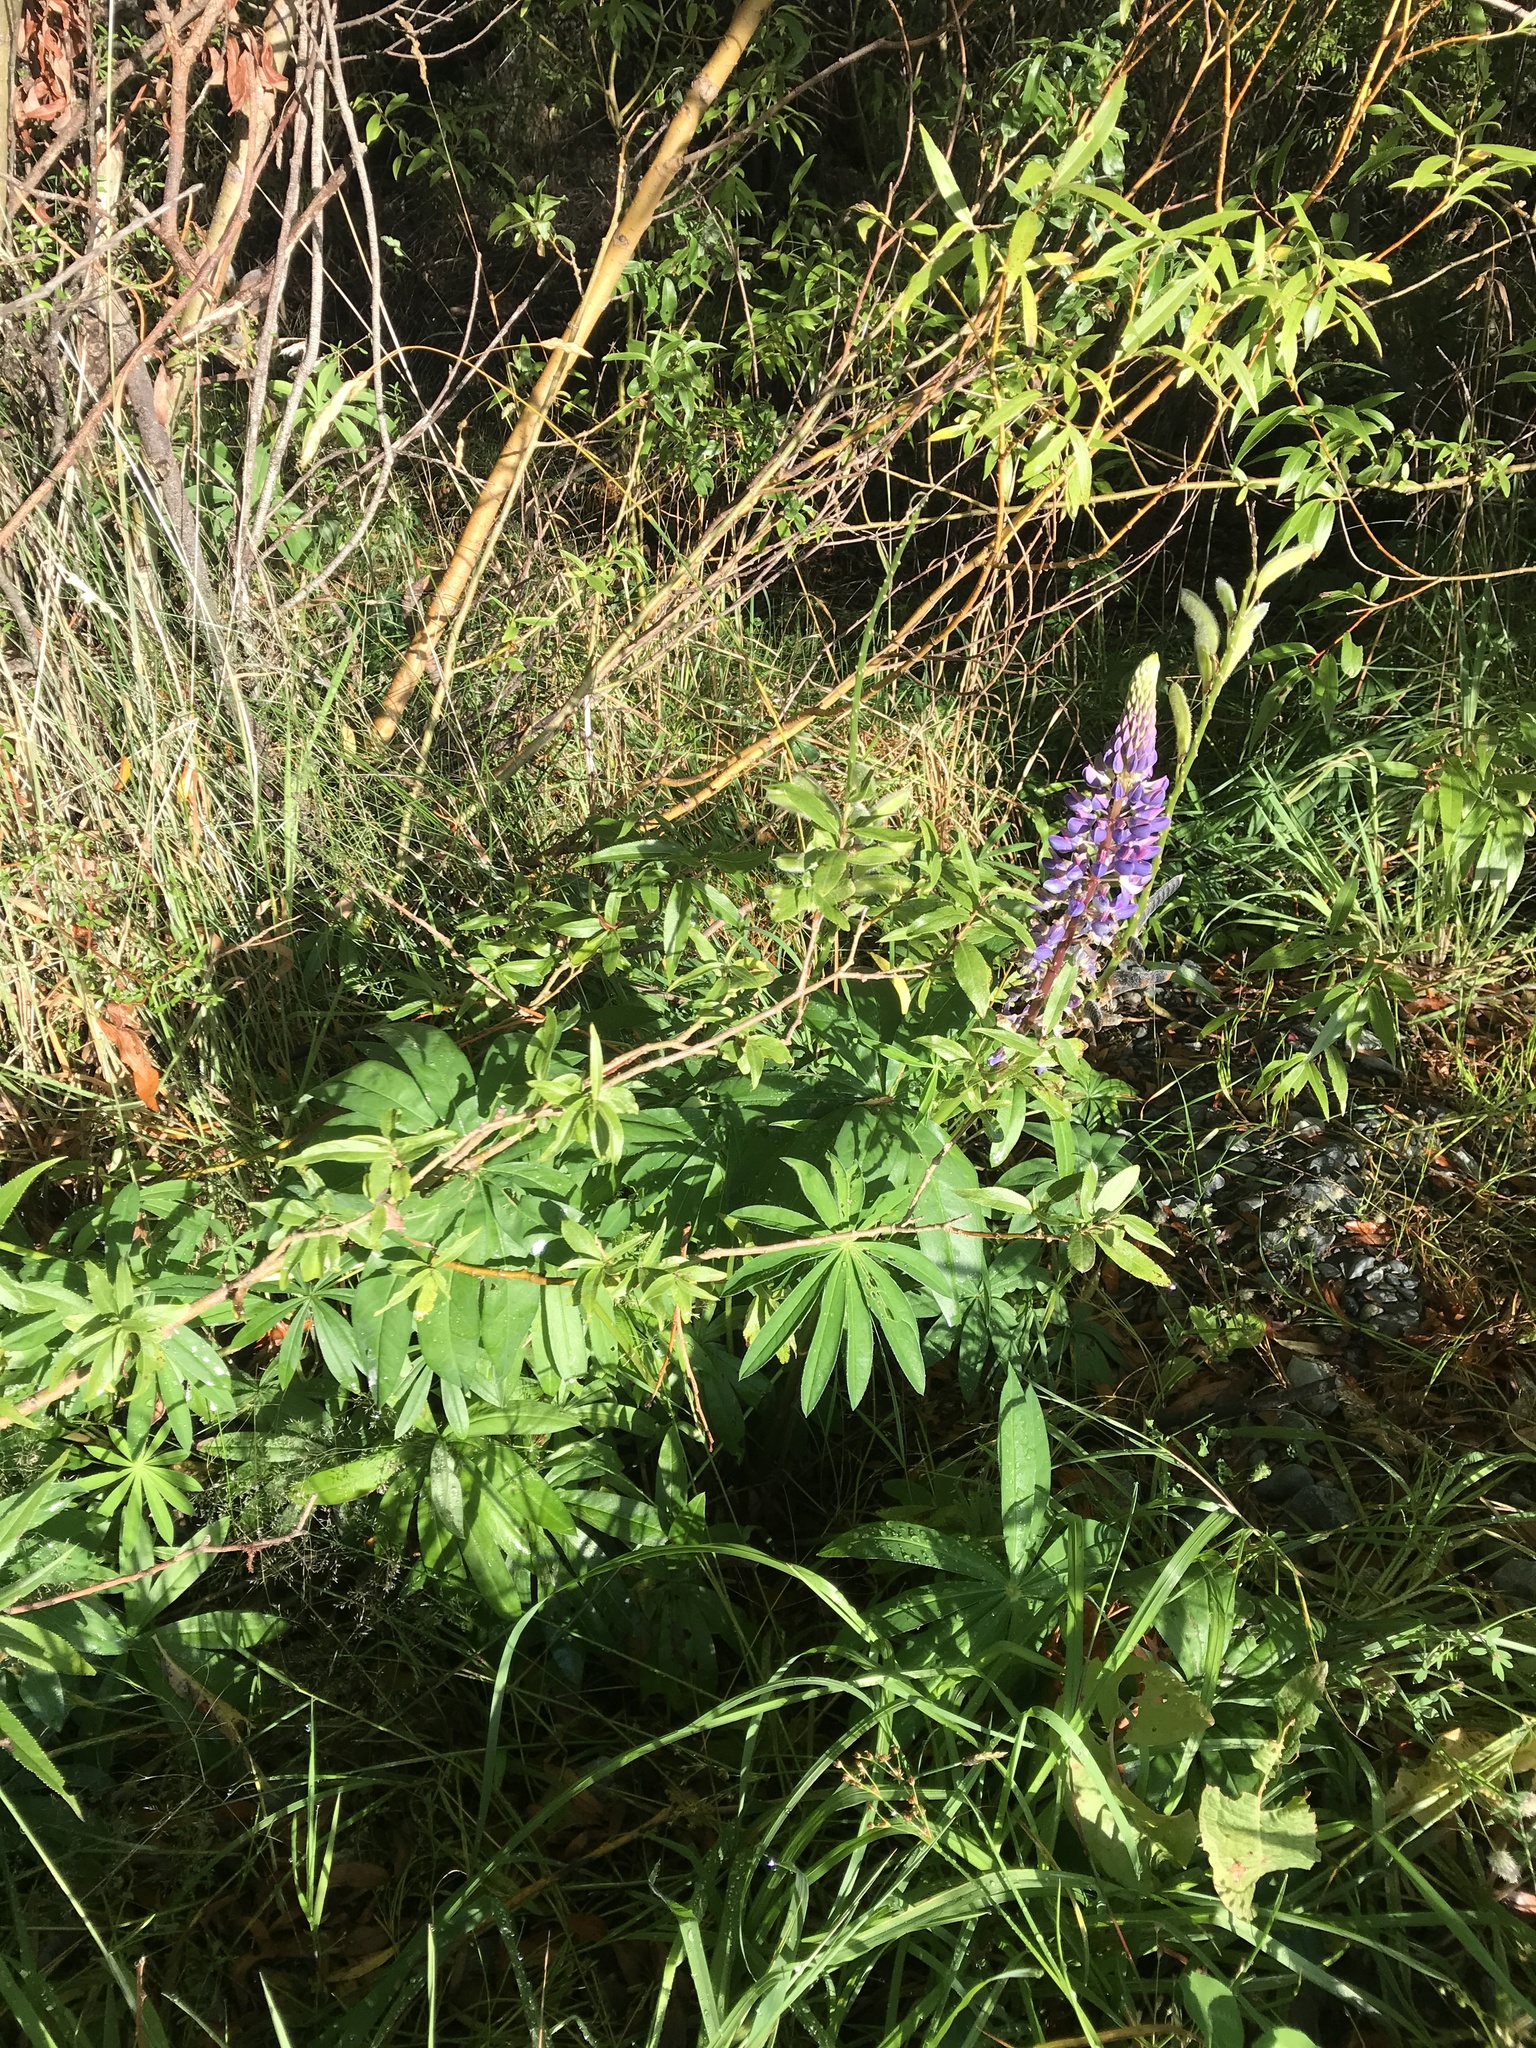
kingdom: Plantae
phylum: Tracheophyta
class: Magnoliopsida
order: Fabales
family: Fabaceae
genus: Lupinus
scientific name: Lupinus polyphyllus
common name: Garden lupin
